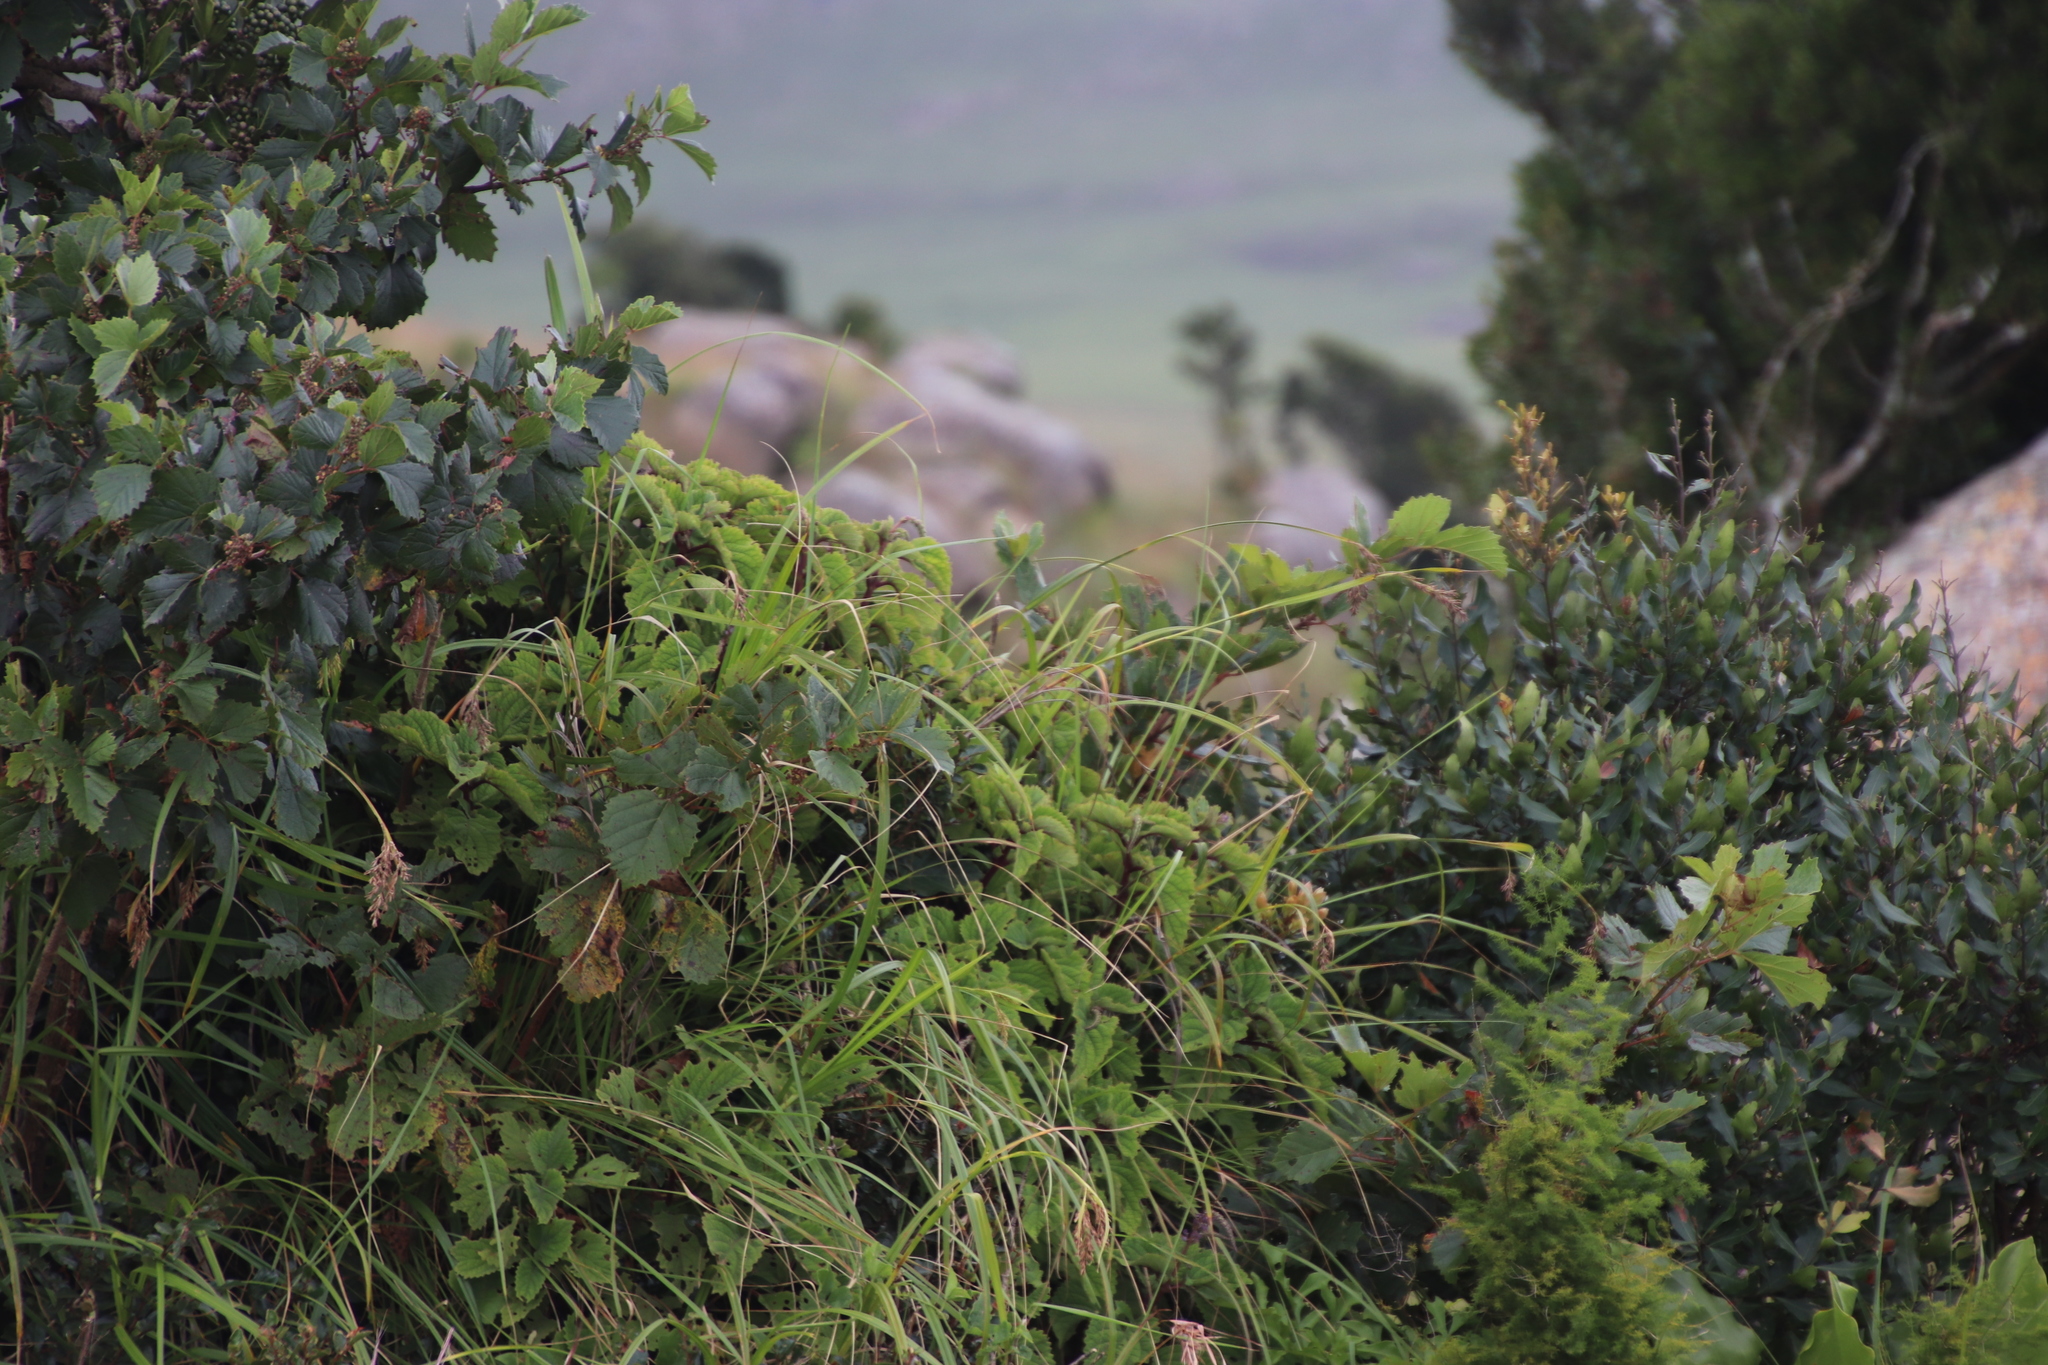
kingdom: Plantae
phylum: Tracheophyta
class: Magnoliopsida
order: Vitales
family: Vitaceae
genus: Rhoicissus
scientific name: Rhoicissus tridentata
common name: Common forest grape
